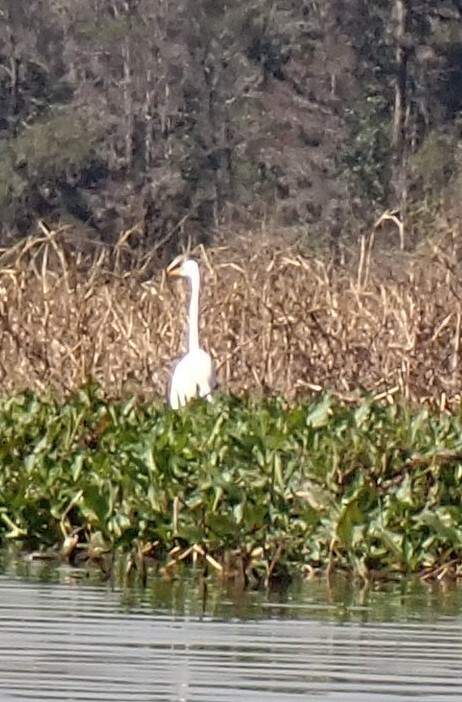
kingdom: Animalia
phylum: Chordata
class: Aves
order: Pelecaniformes
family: Ardeidae
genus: Ardea
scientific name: Ardea alba
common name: Great egret
